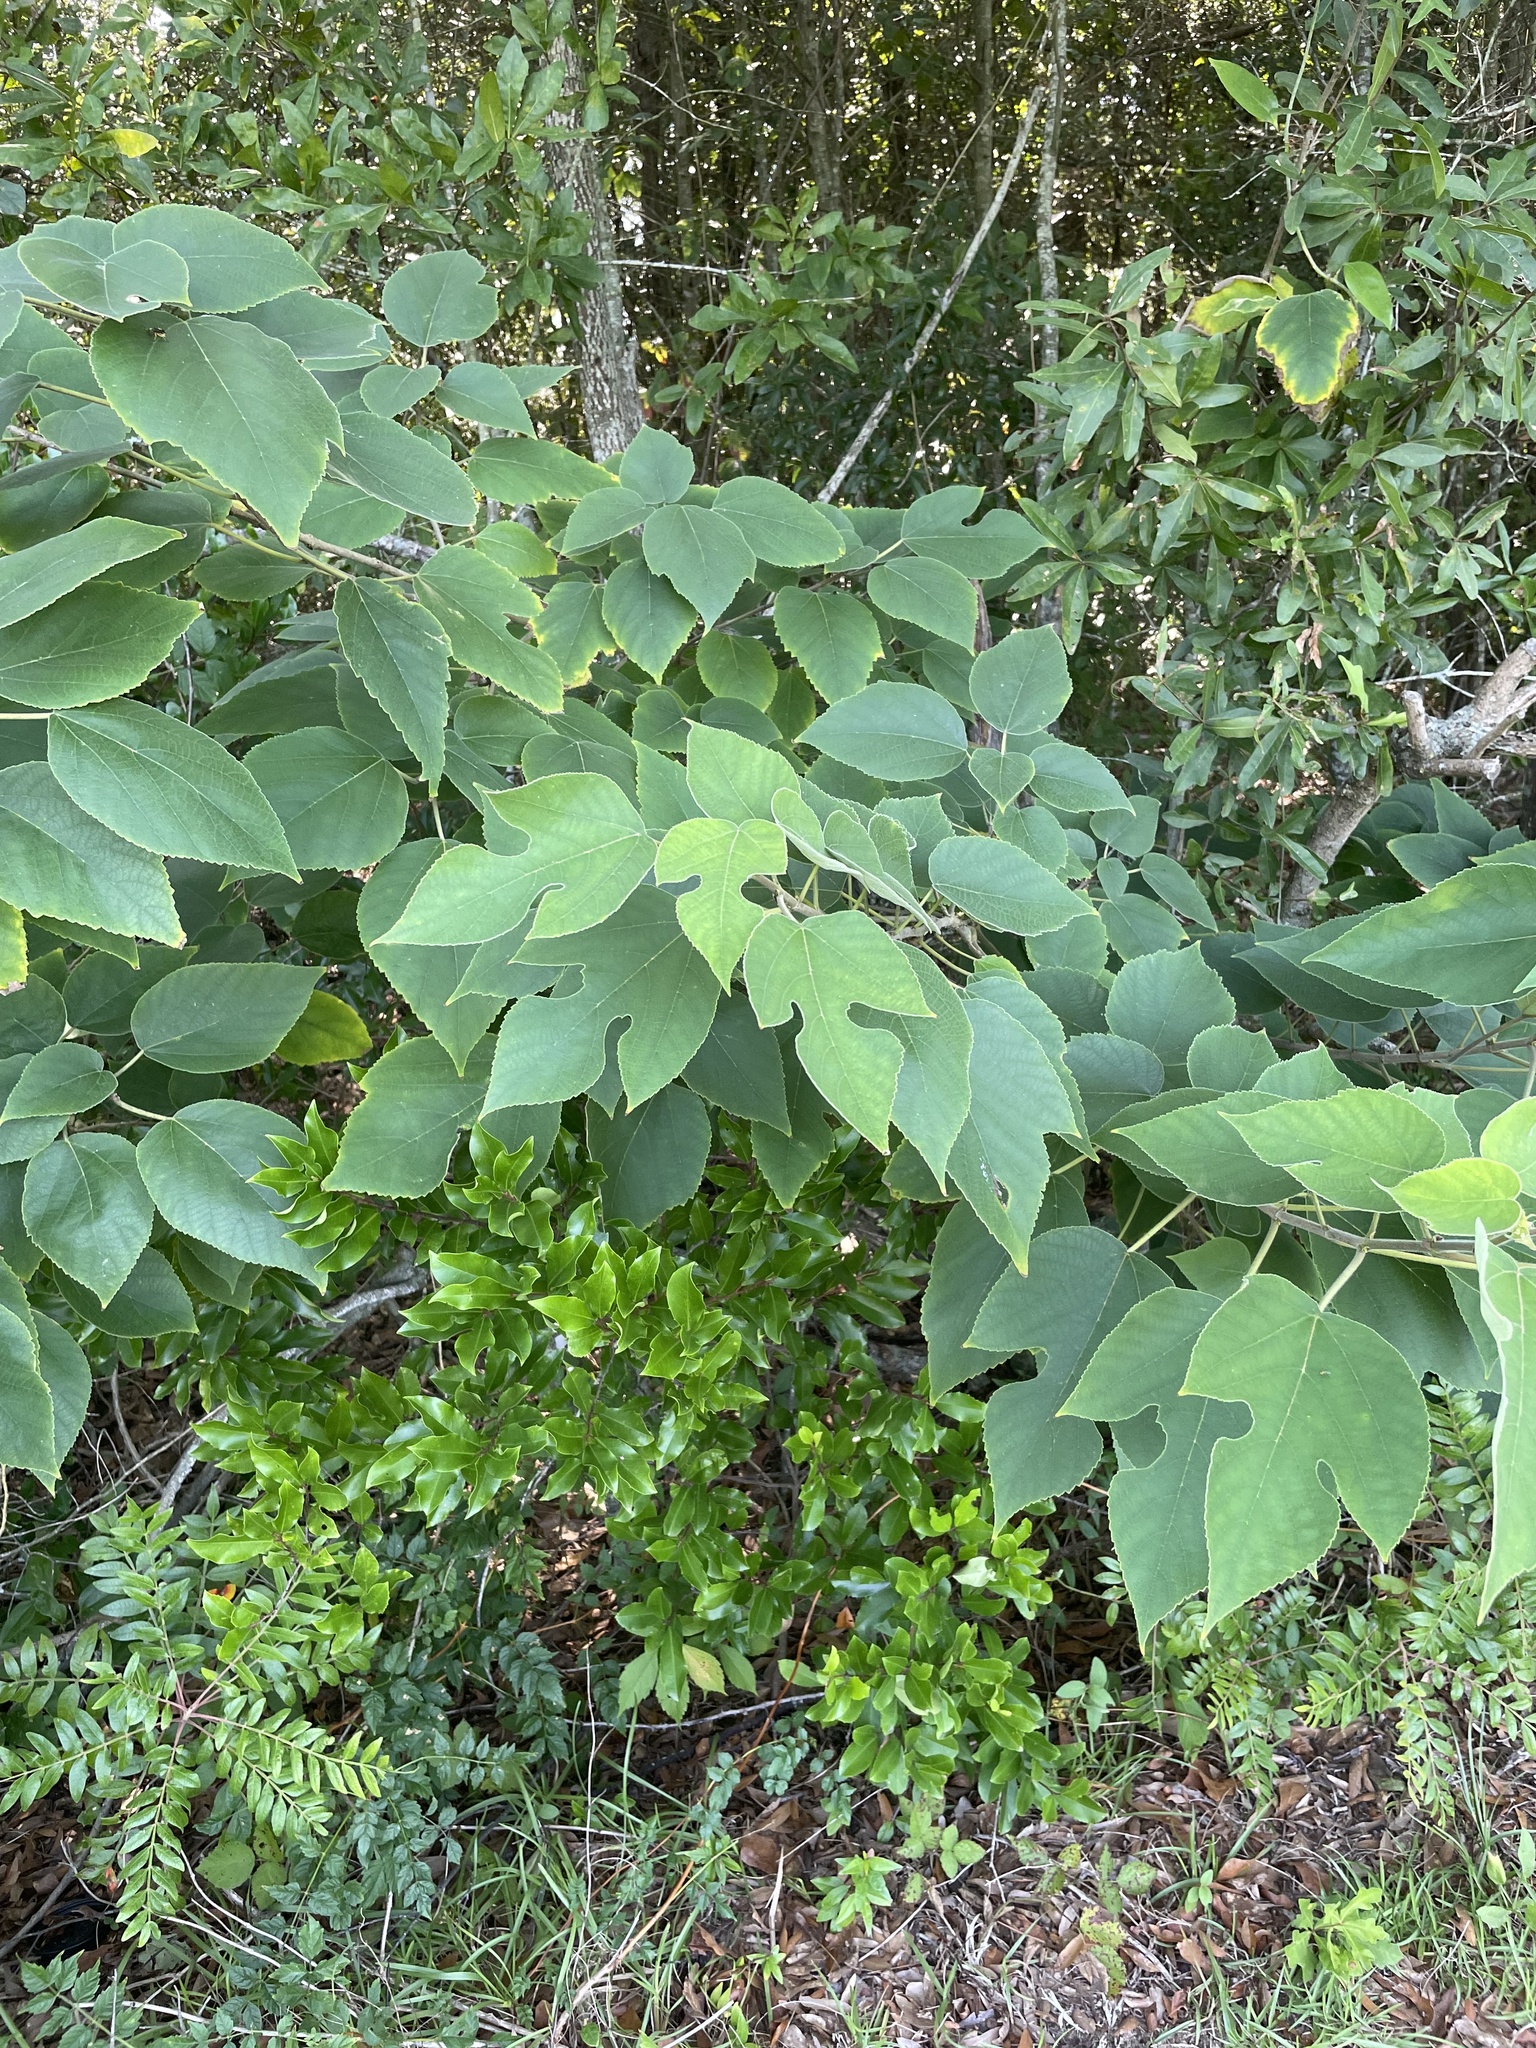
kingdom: Plantae
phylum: Tracheophyta
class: Magnoliopsida
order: Rosales
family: Moraceae
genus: Broussonetia
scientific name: Broussonetia papyrifera
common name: Paper mulberry
